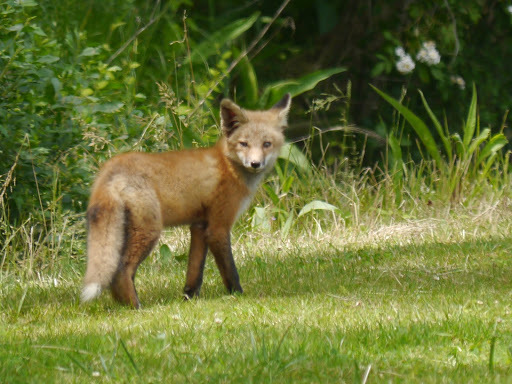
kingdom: Animalia
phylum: Chordata
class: Mammalia
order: Carnivora
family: Canidae
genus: Vulpes
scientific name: Vulpes vulpes
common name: Red fox
